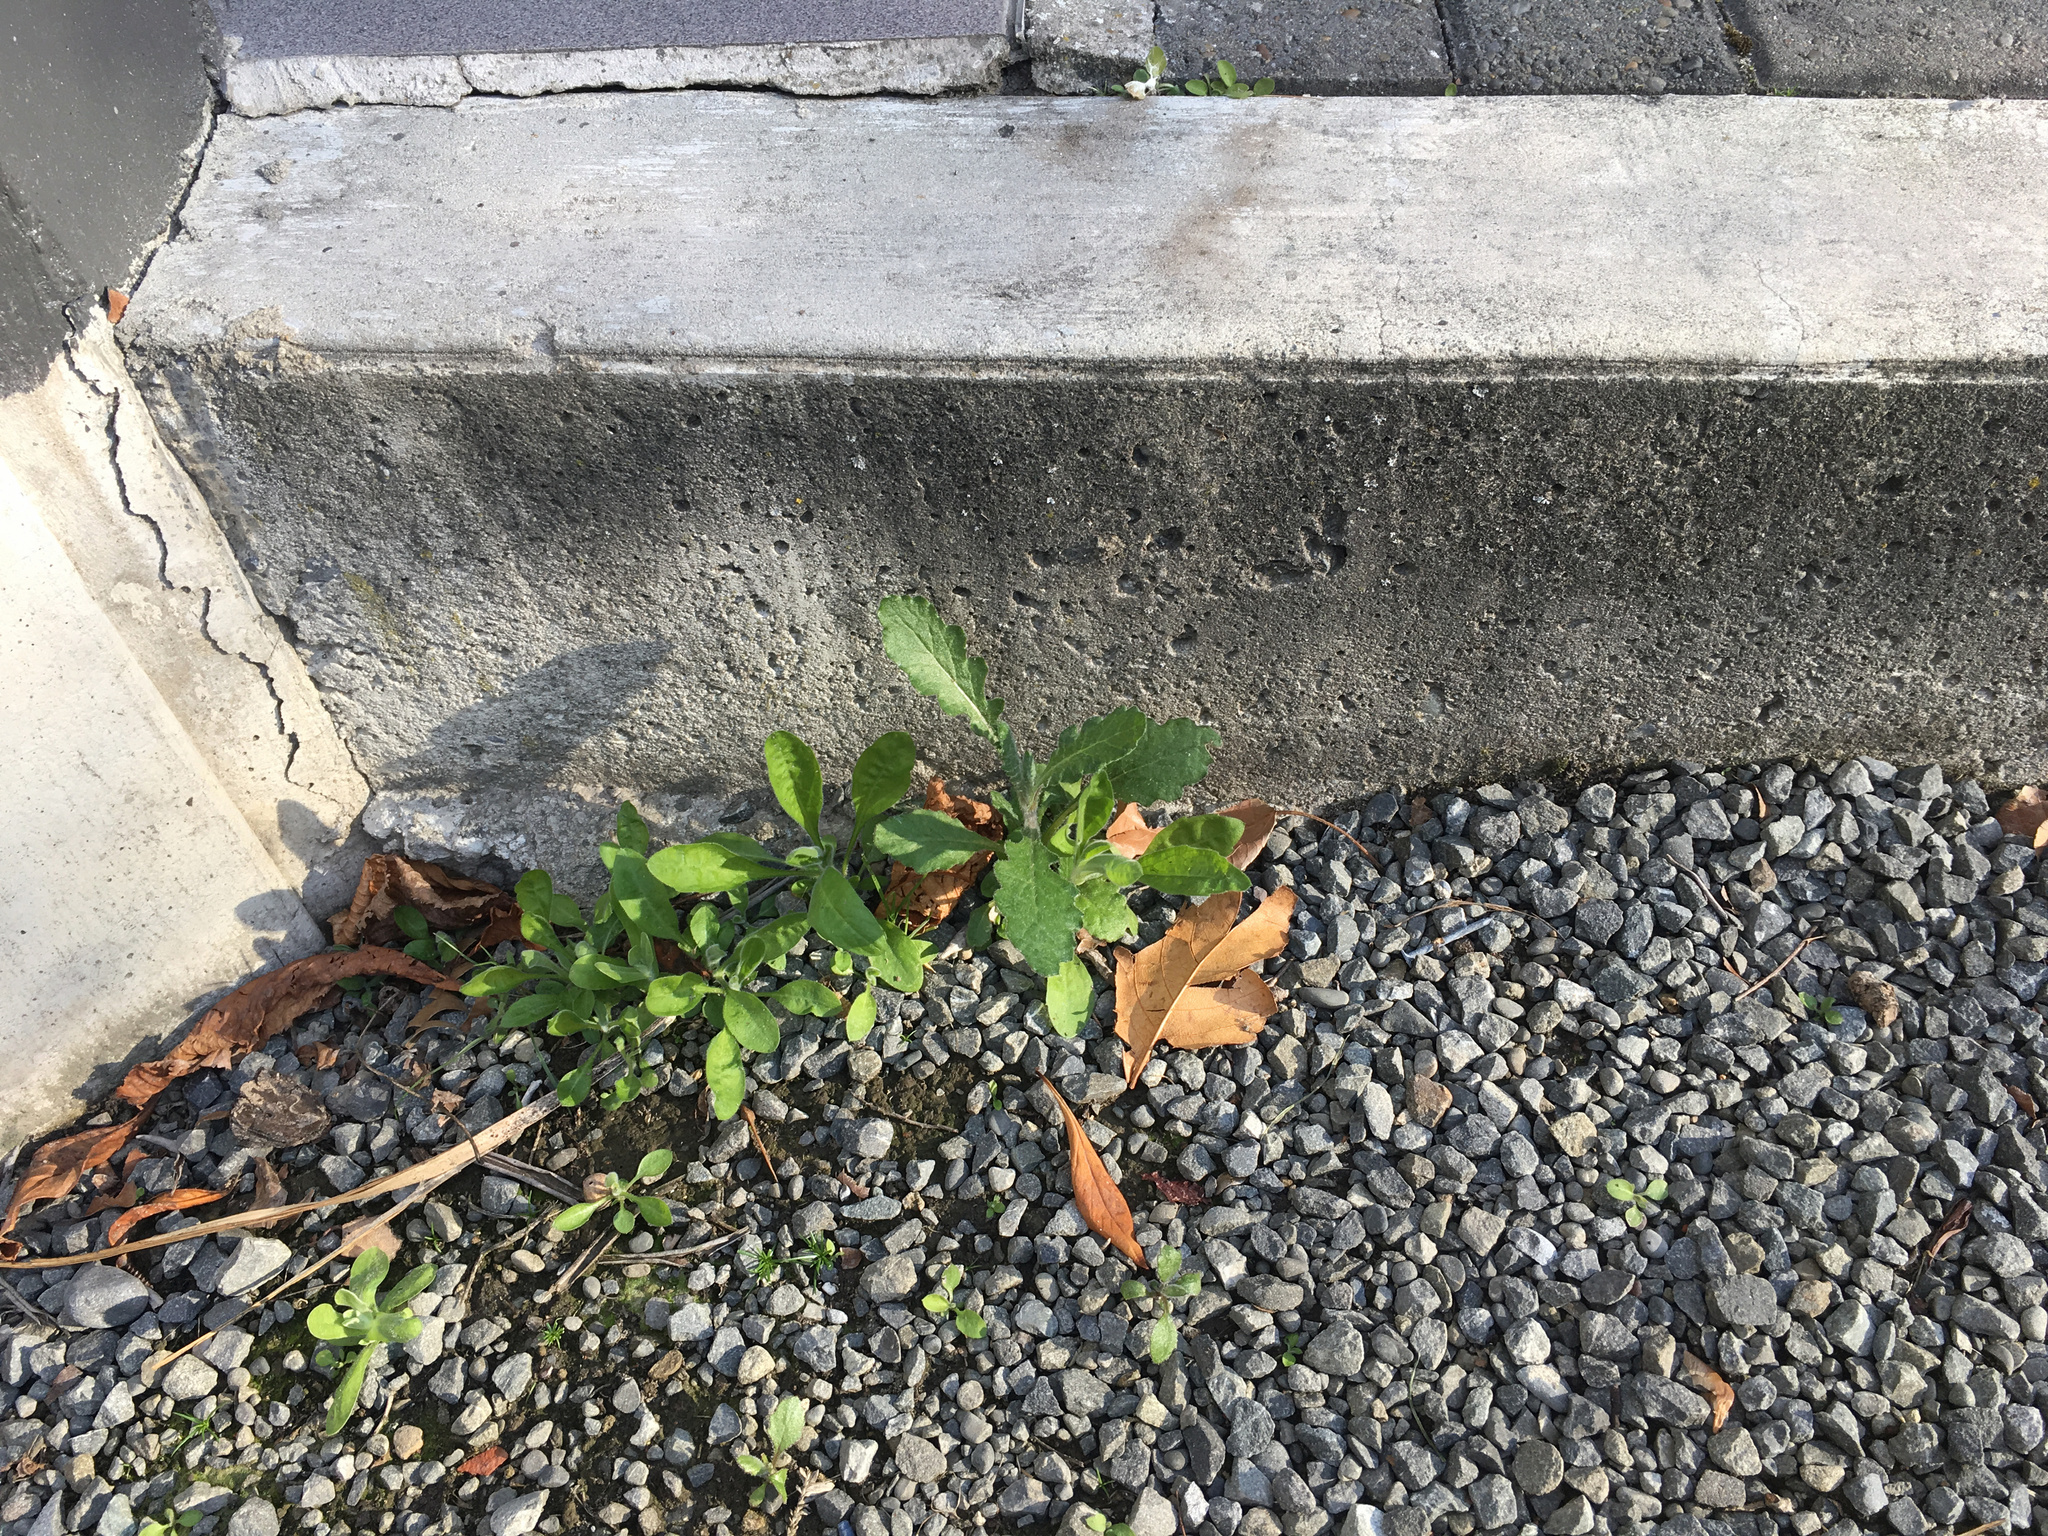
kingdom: Plantae
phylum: Tracheophyta
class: Magnoliopsida
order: Asterales
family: Asteraceae
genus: Senecio
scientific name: Senecio glomeratus
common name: Cutleaf burnweed
